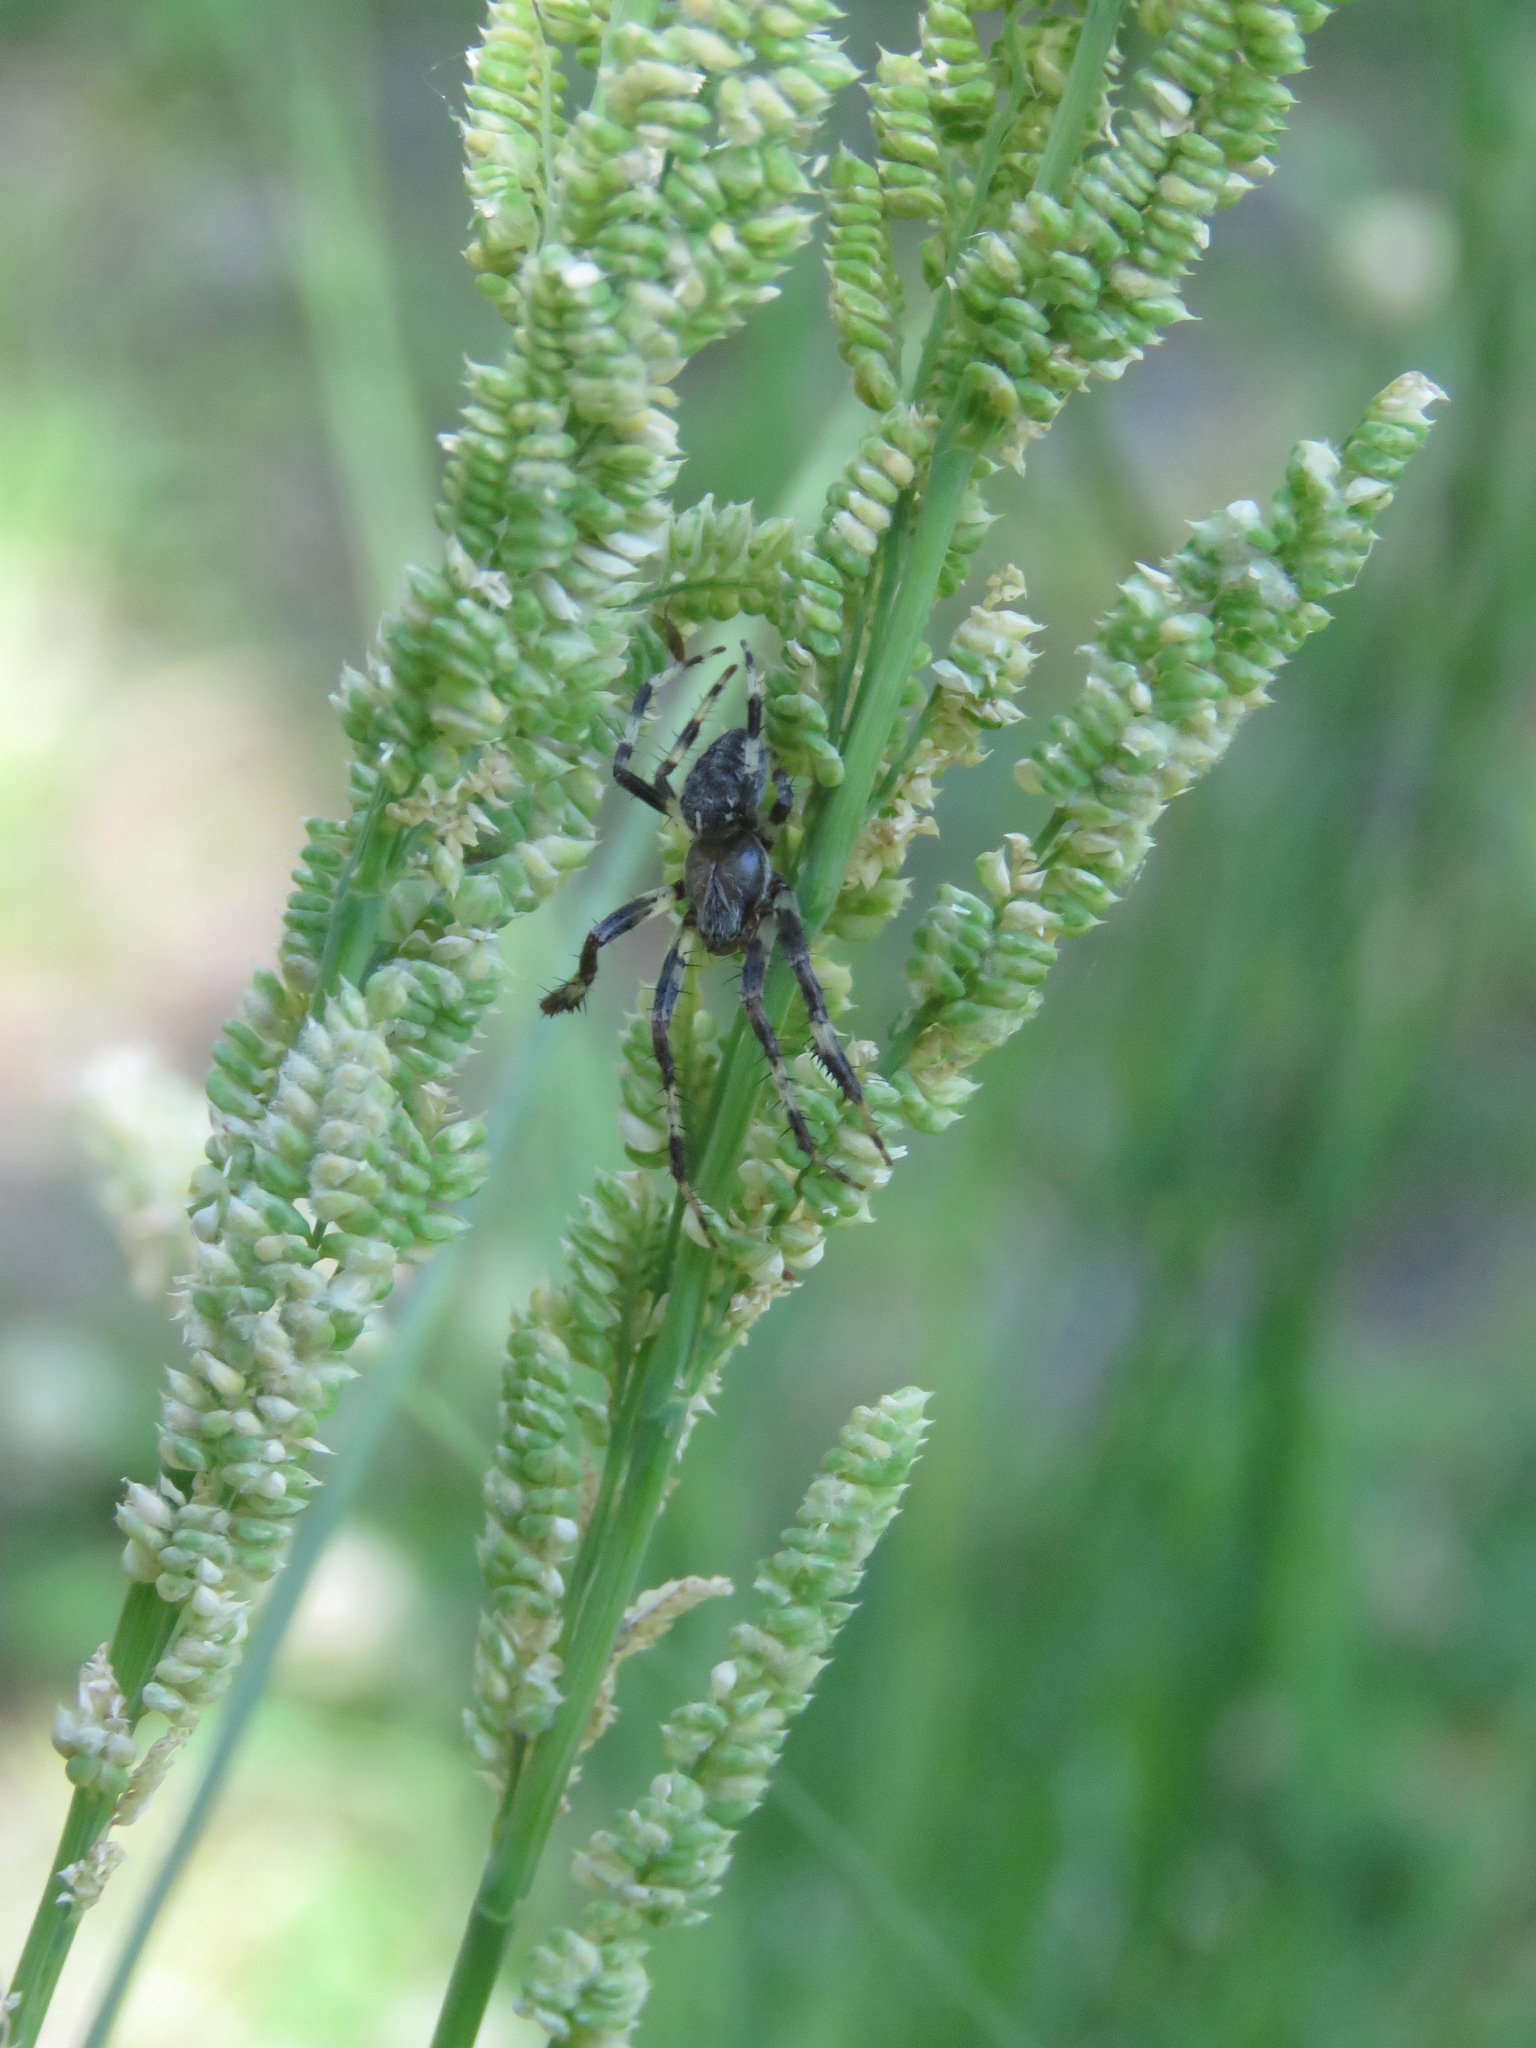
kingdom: Animalia
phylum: Arthropoda
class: Arachnida
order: Araneae
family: Araneidae
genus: Araneus
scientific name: Araneus marmoreus
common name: Marbled orbweaver
